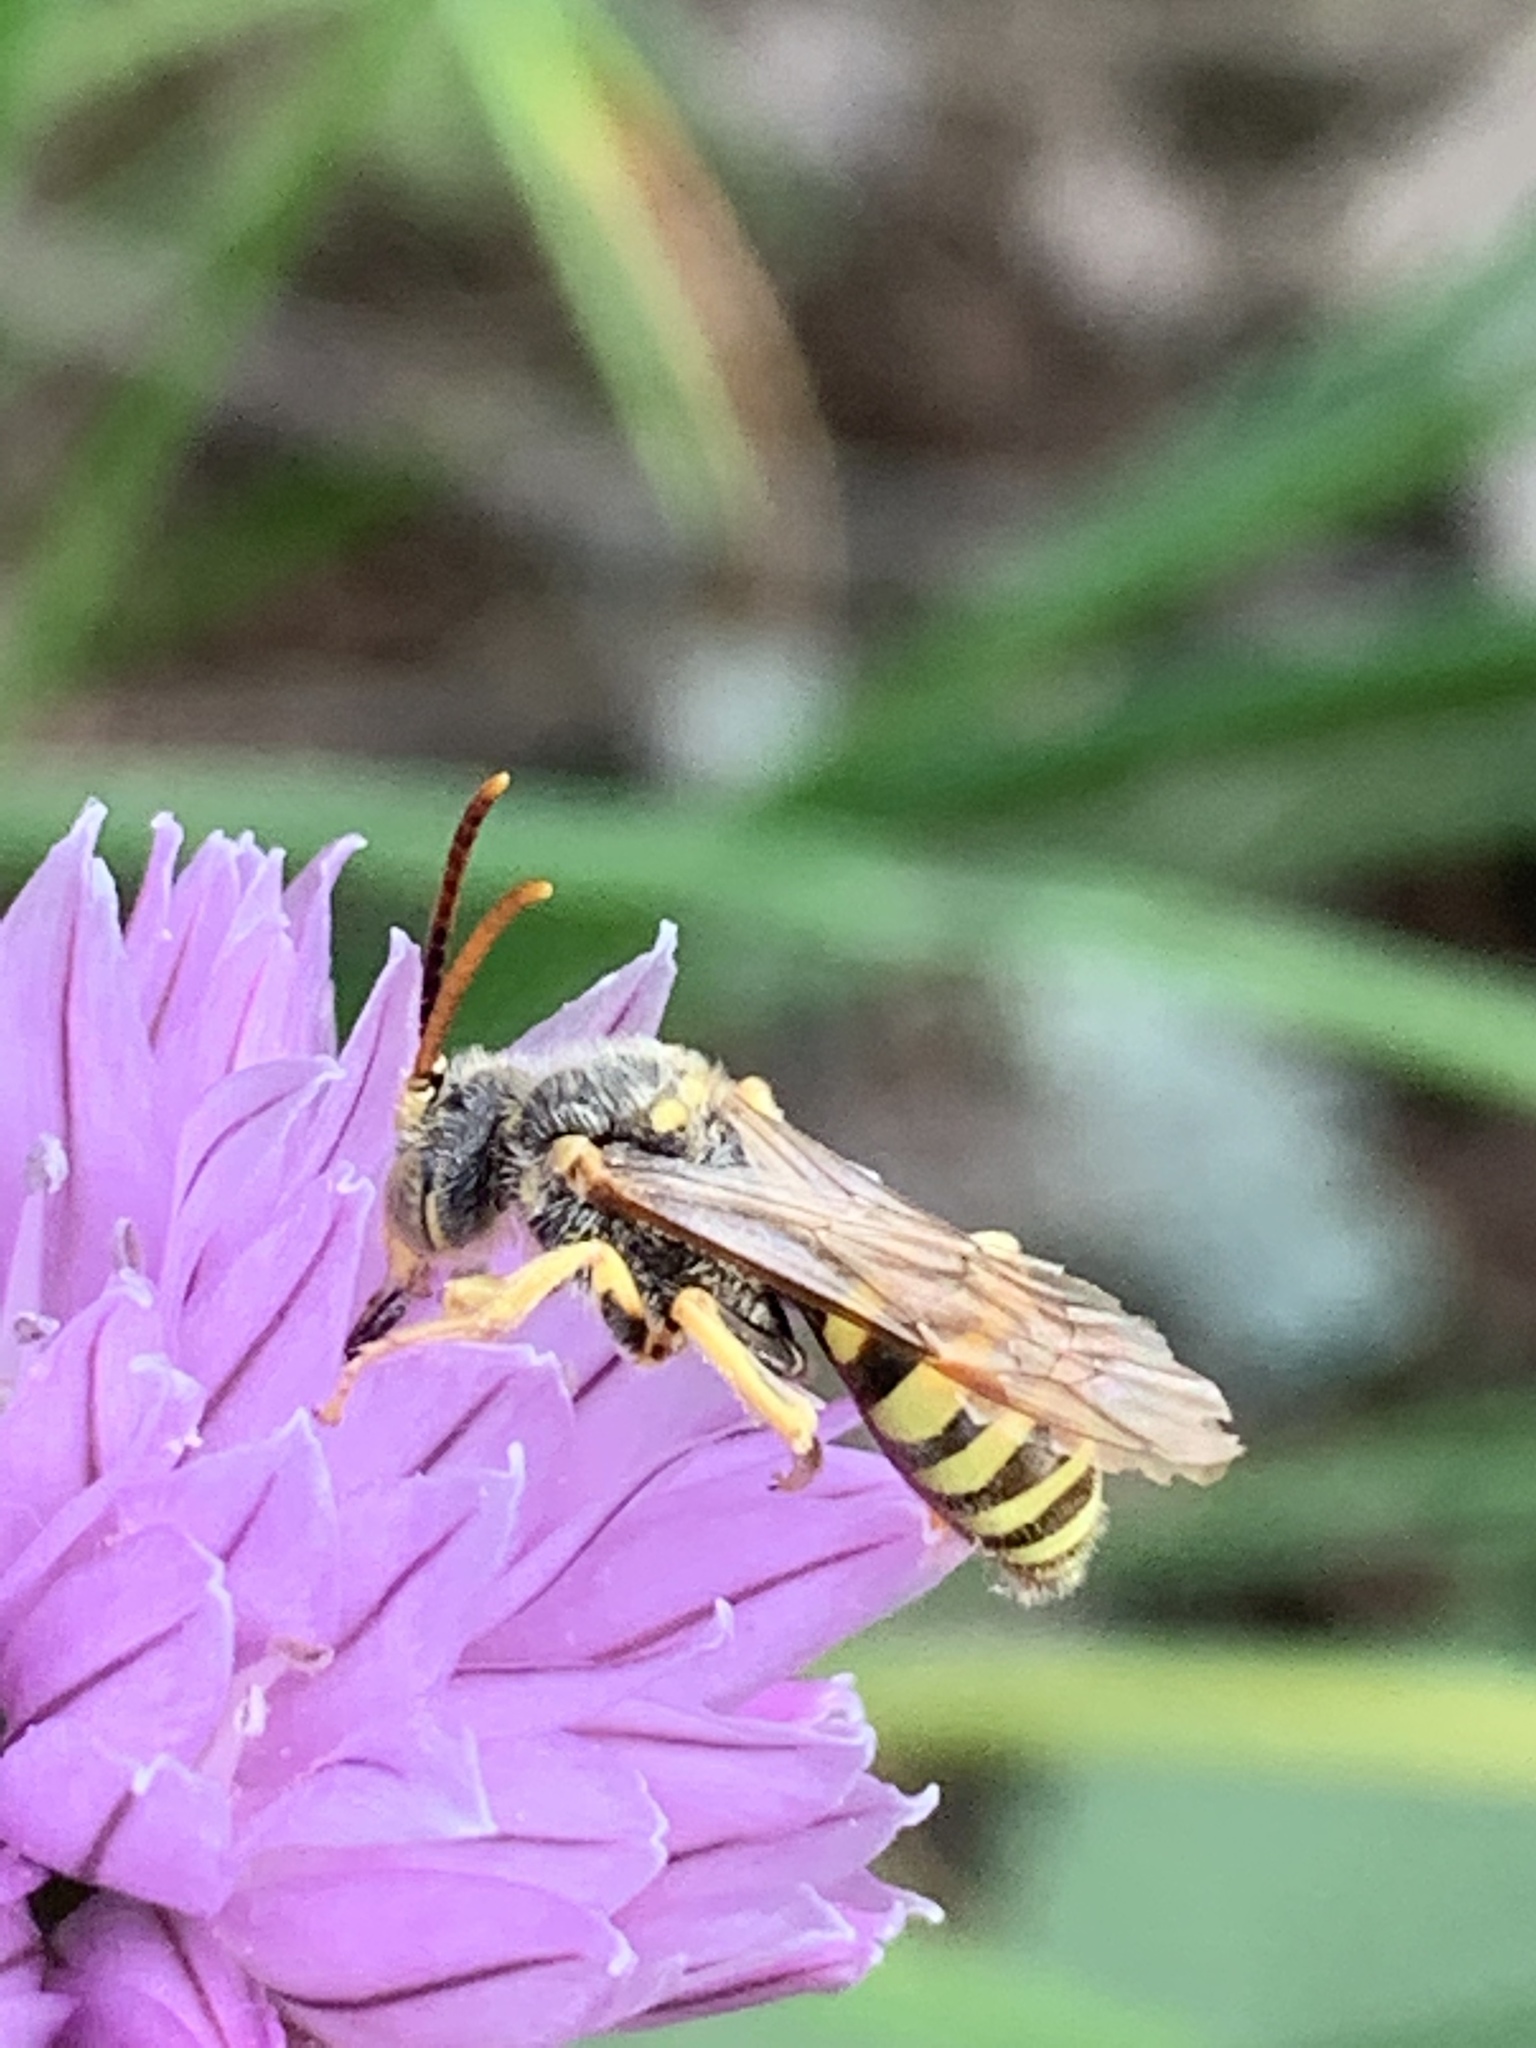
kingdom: Animalia
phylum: Arthropoda
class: Insecta
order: Hymenoptera
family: Apidae
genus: Nomada
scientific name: Nomada luteoloides
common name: Black-and-yellow nomad bee
